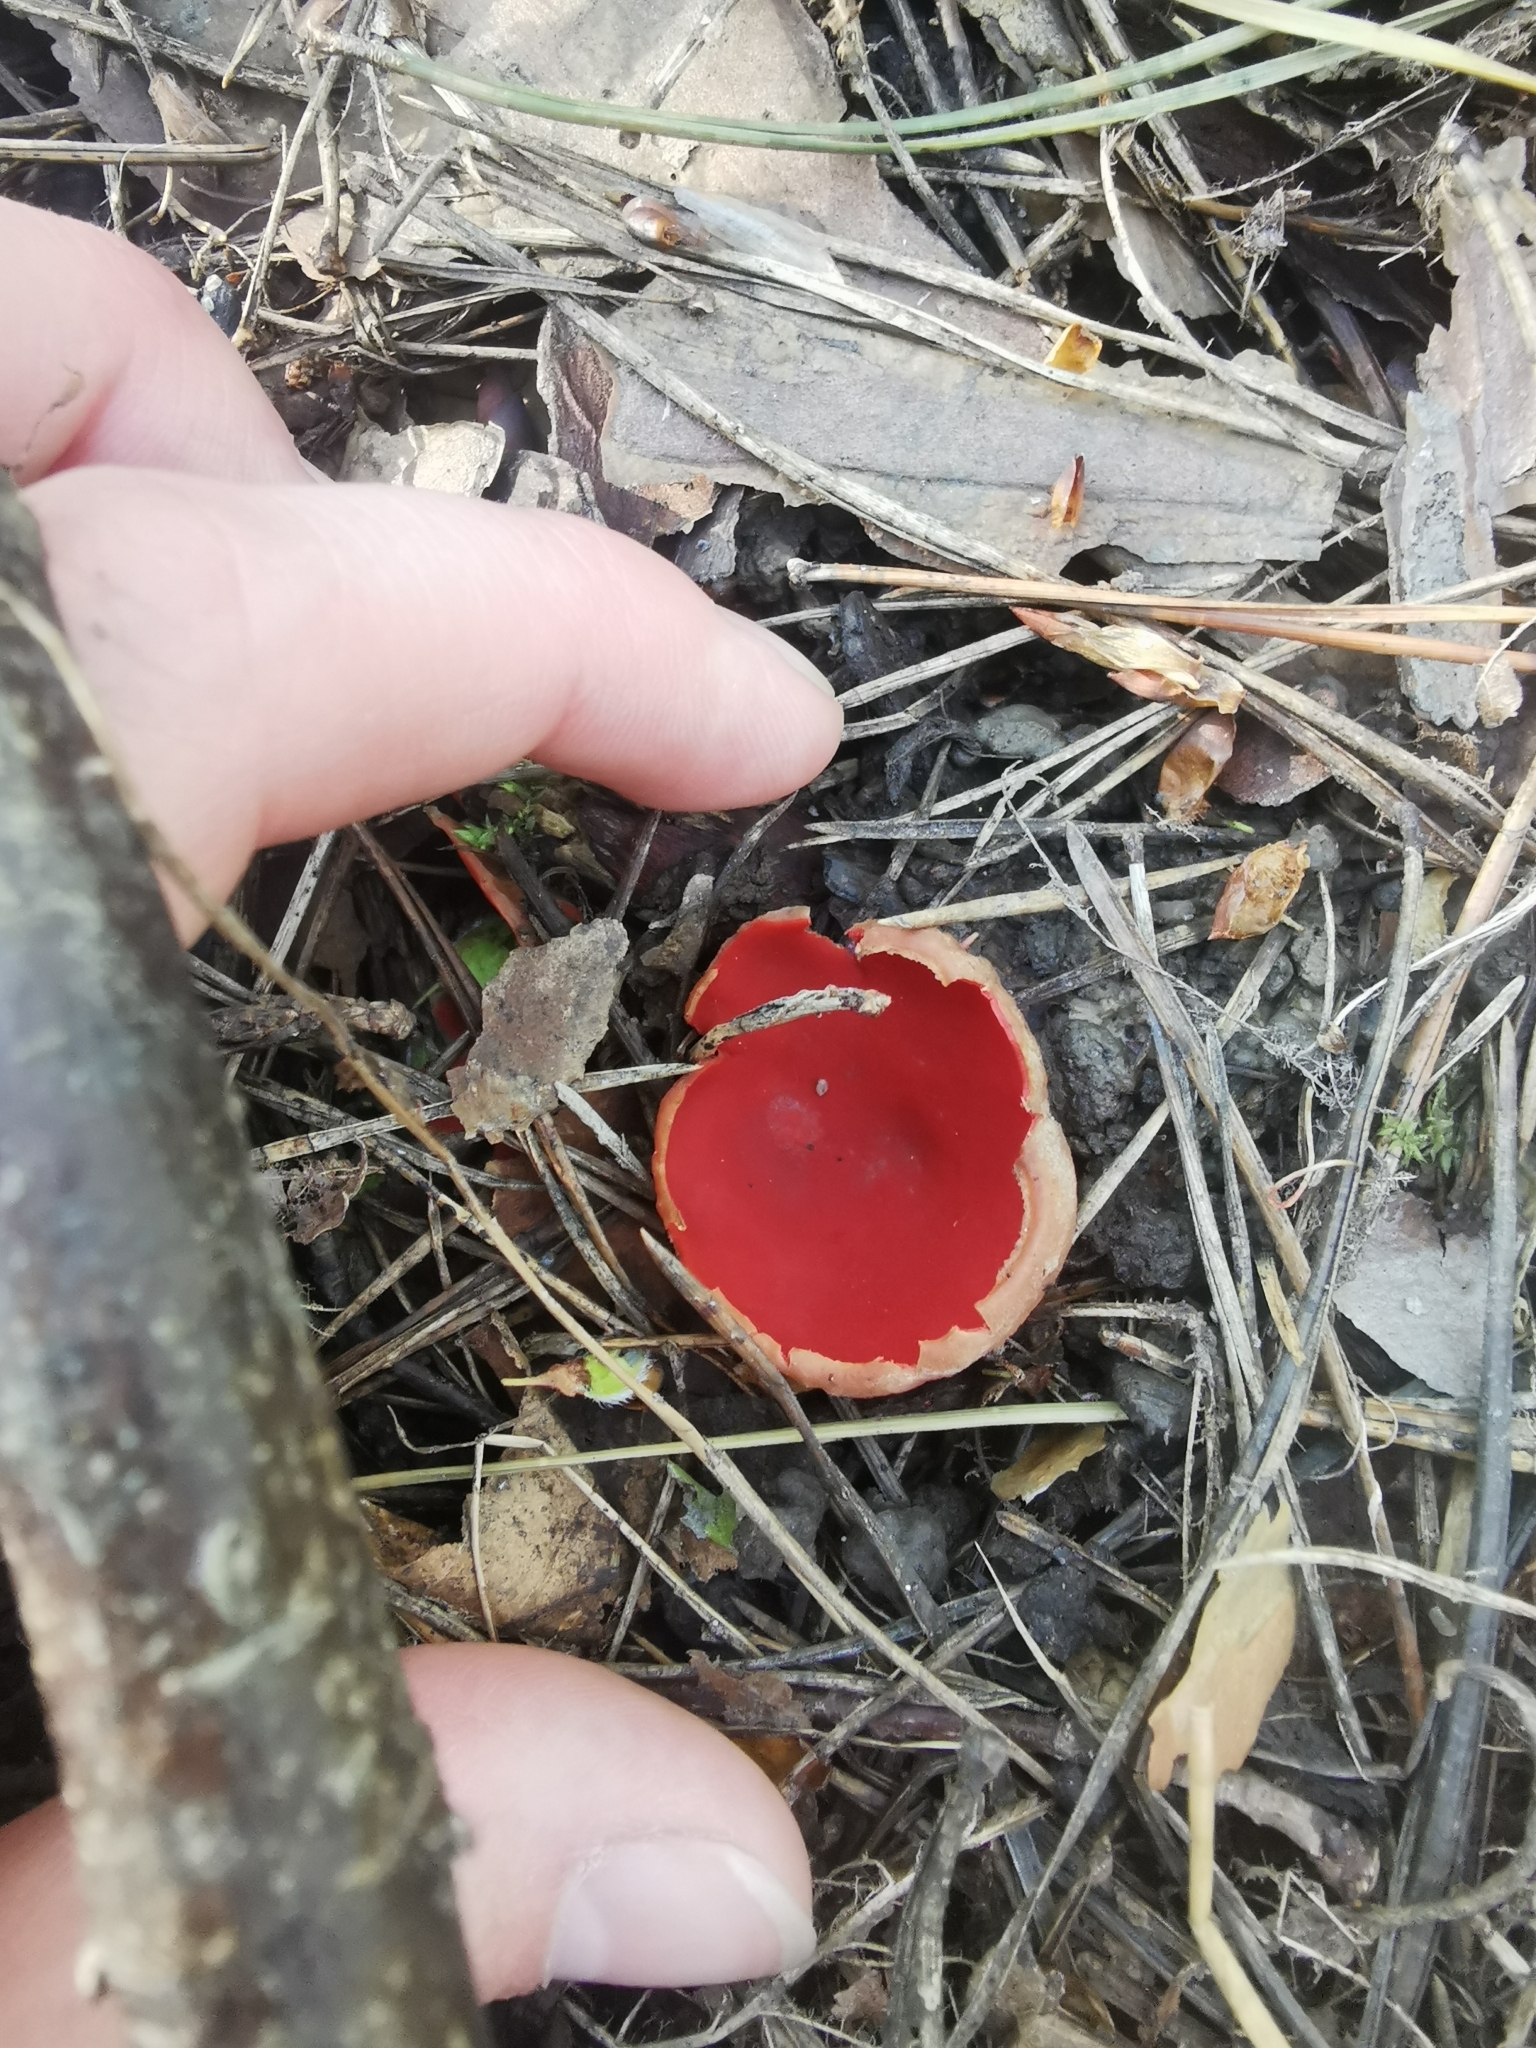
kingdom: Fungi
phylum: Ascomycota
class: Pezizomycetes
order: Pezizales
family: Sarcoscyphaceae
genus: Sarcoscypha
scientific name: Sarcoscypha austriaca
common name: Scarlet elfcup
